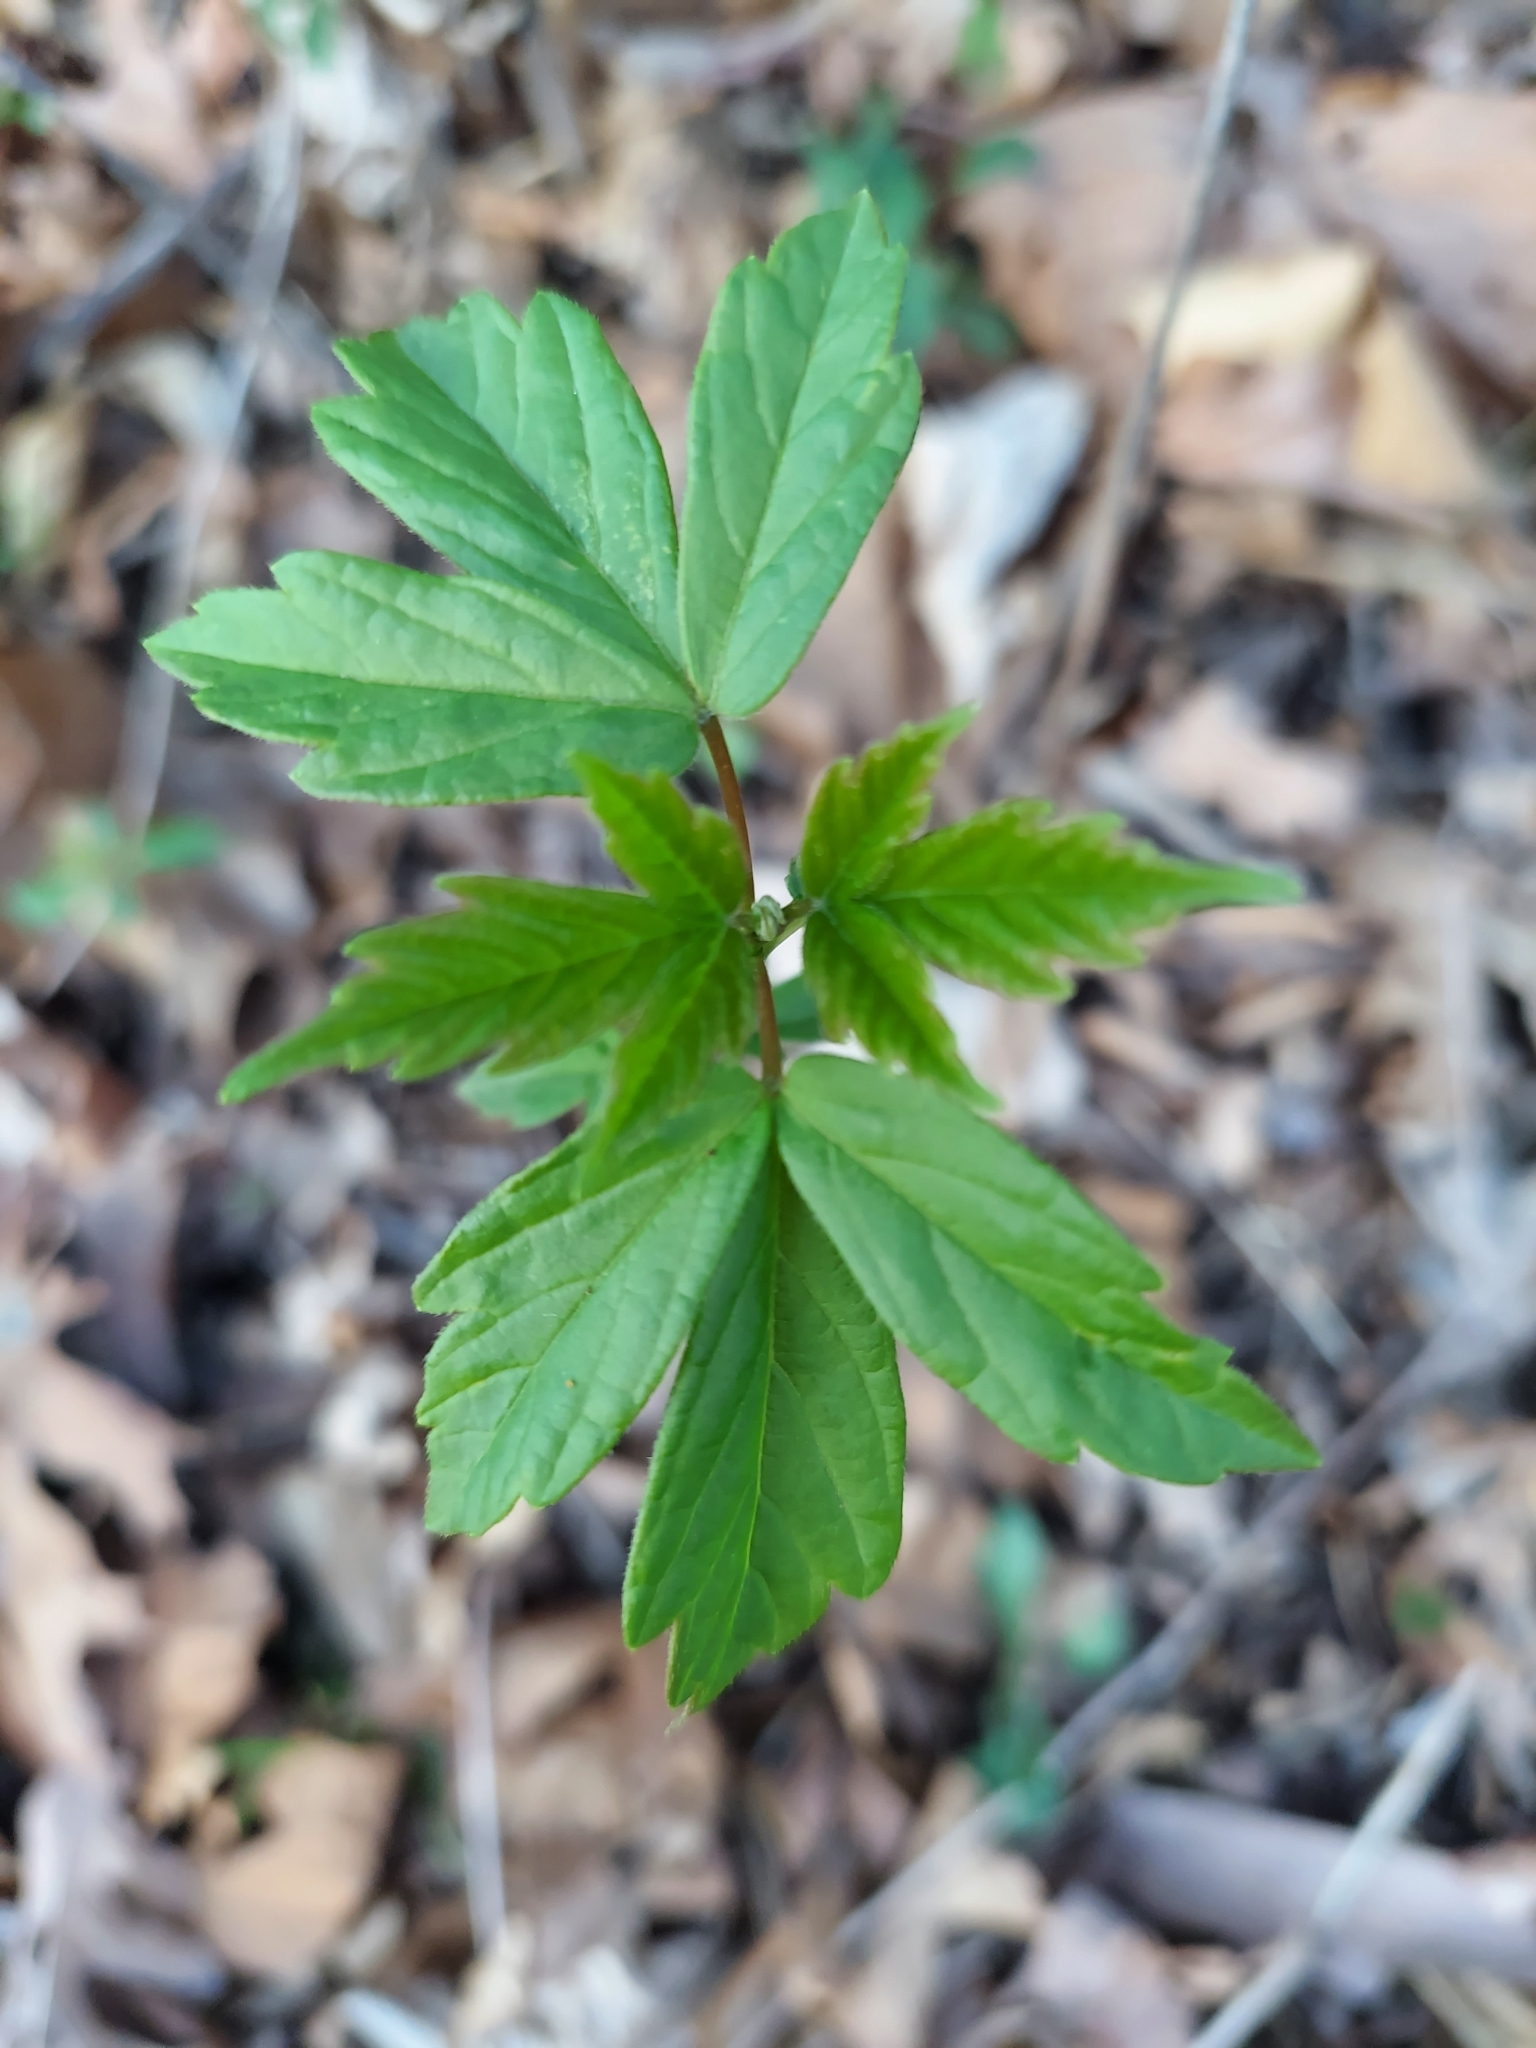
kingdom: Plantae
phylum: Tracheophyta
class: Magnoliopsida
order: Sapindales
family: Sapindaceae
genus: Acer
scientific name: Acer negundo
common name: Ashleaf maple
